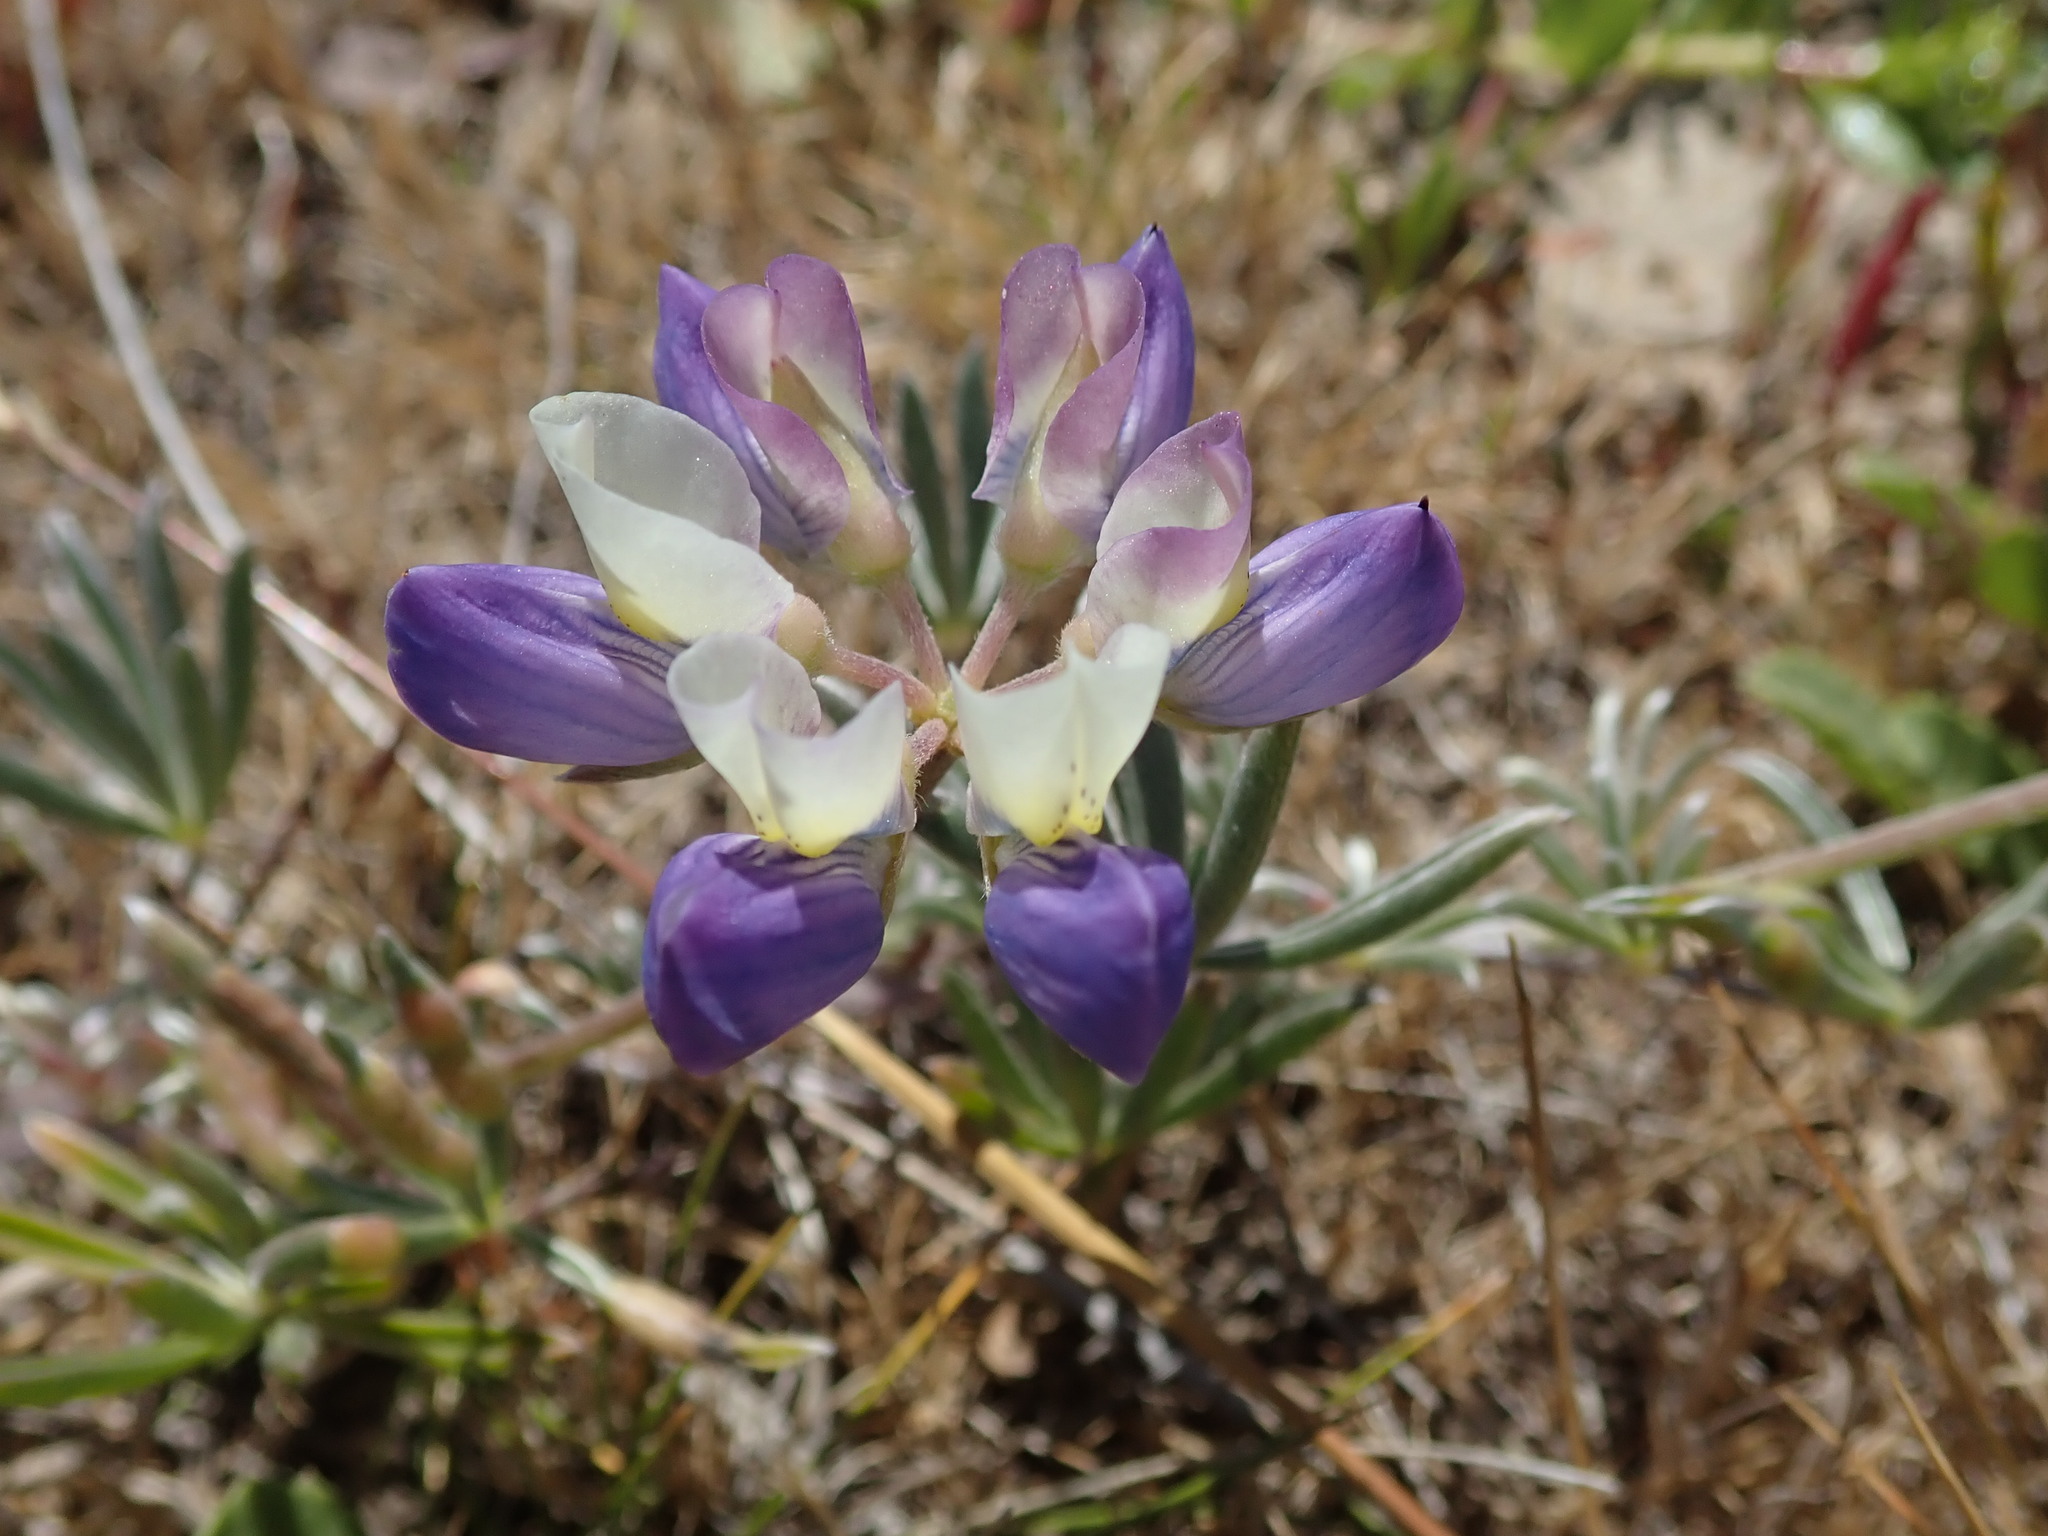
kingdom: Plantae
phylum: Tracheophyta
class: Magnoliopsida
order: Fabales
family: Fabaceae
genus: Lupinus
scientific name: Lupinus variicolor
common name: Lindley's varied lupine
